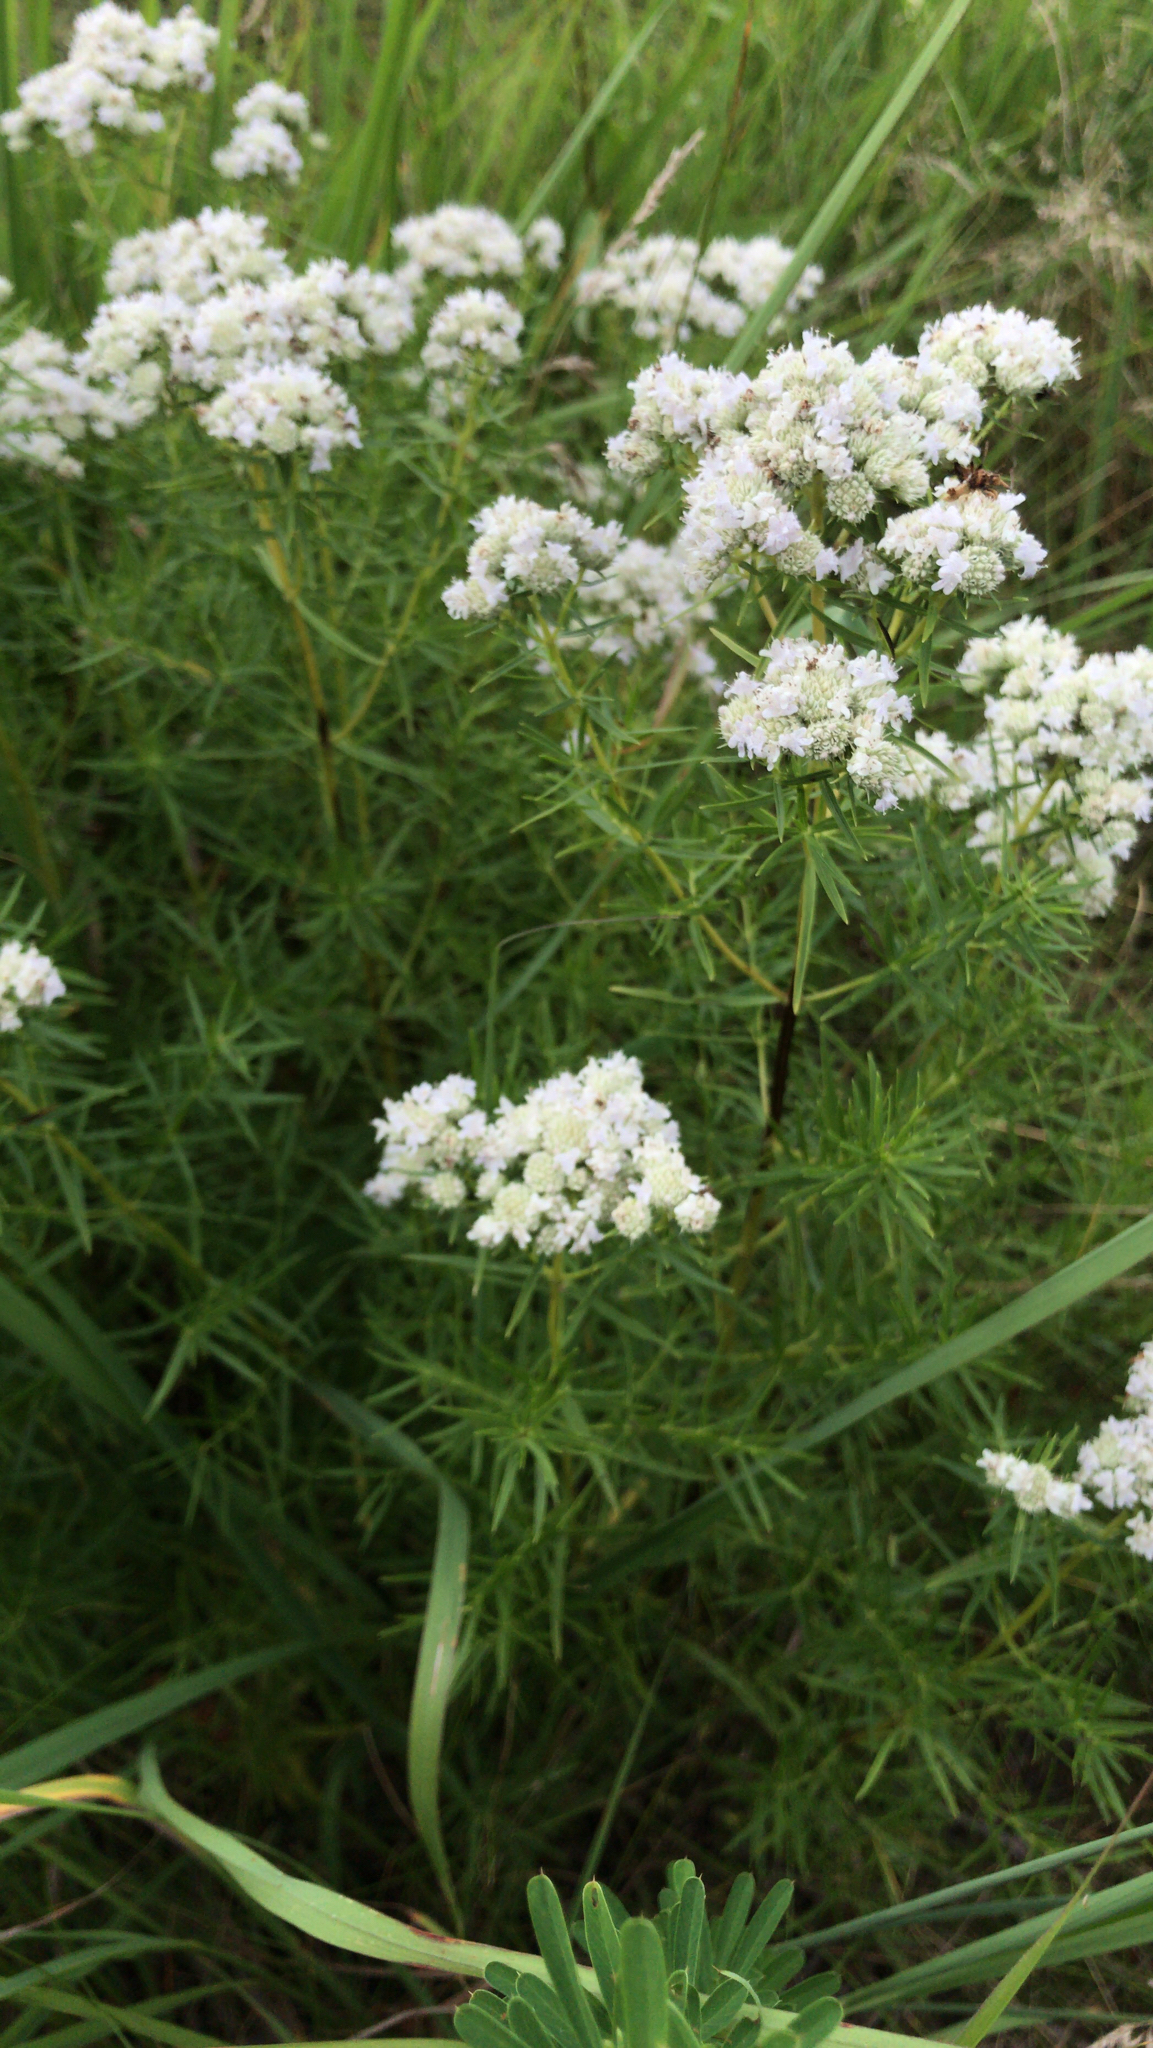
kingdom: Plantae
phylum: Tracheophyta
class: Magnoliopsida
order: Lamiales
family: Lamiaceae
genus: Pycnanthemum
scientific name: Pycnanthemum tenuifolium
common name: Narrow-leaf mountain-mint
